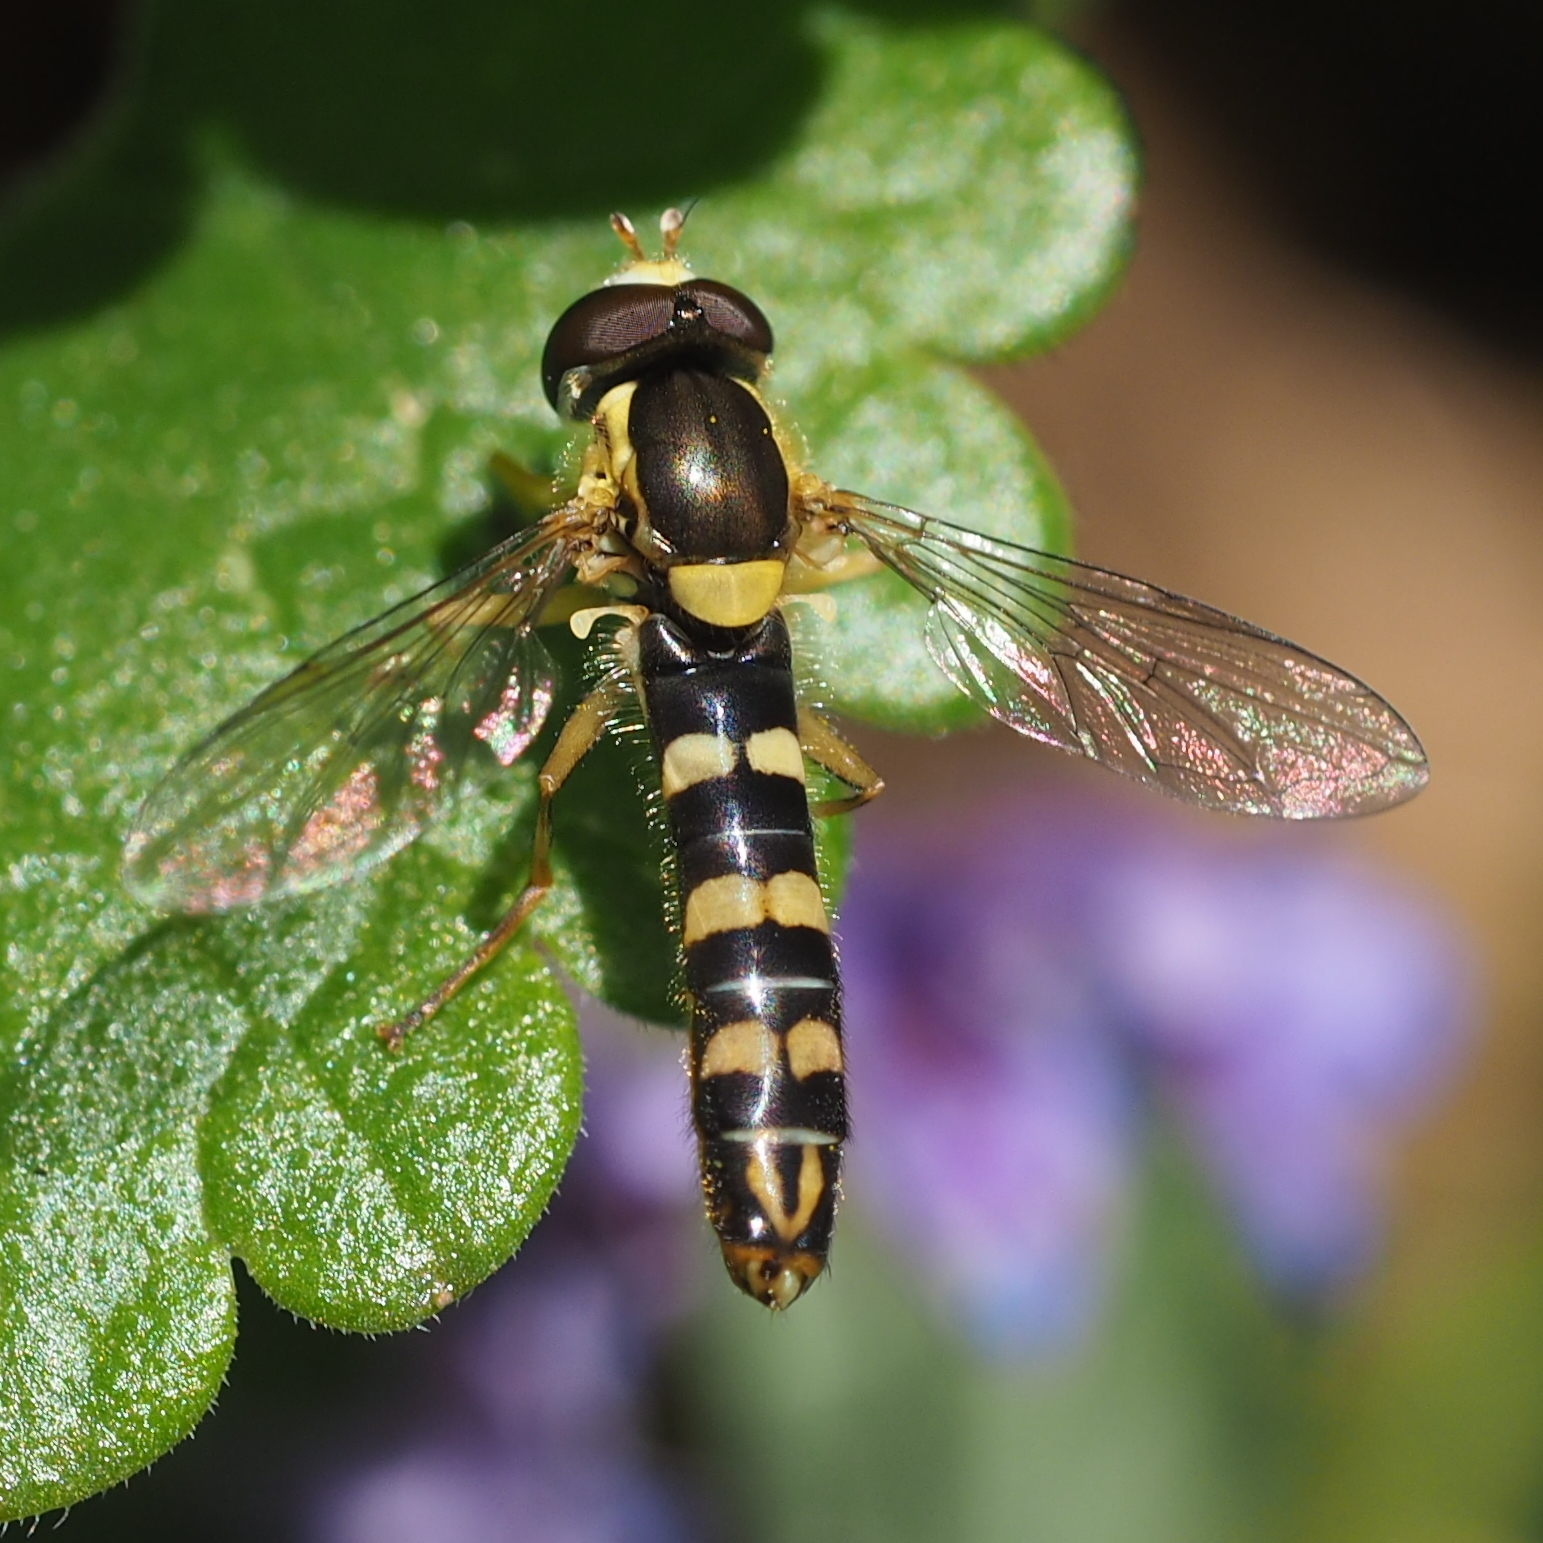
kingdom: Animalia
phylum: Arthropoda
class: Insecta
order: Diptera
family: Syrphidae
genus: Sphaerophoria
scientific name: Sphaerophoria scripta
